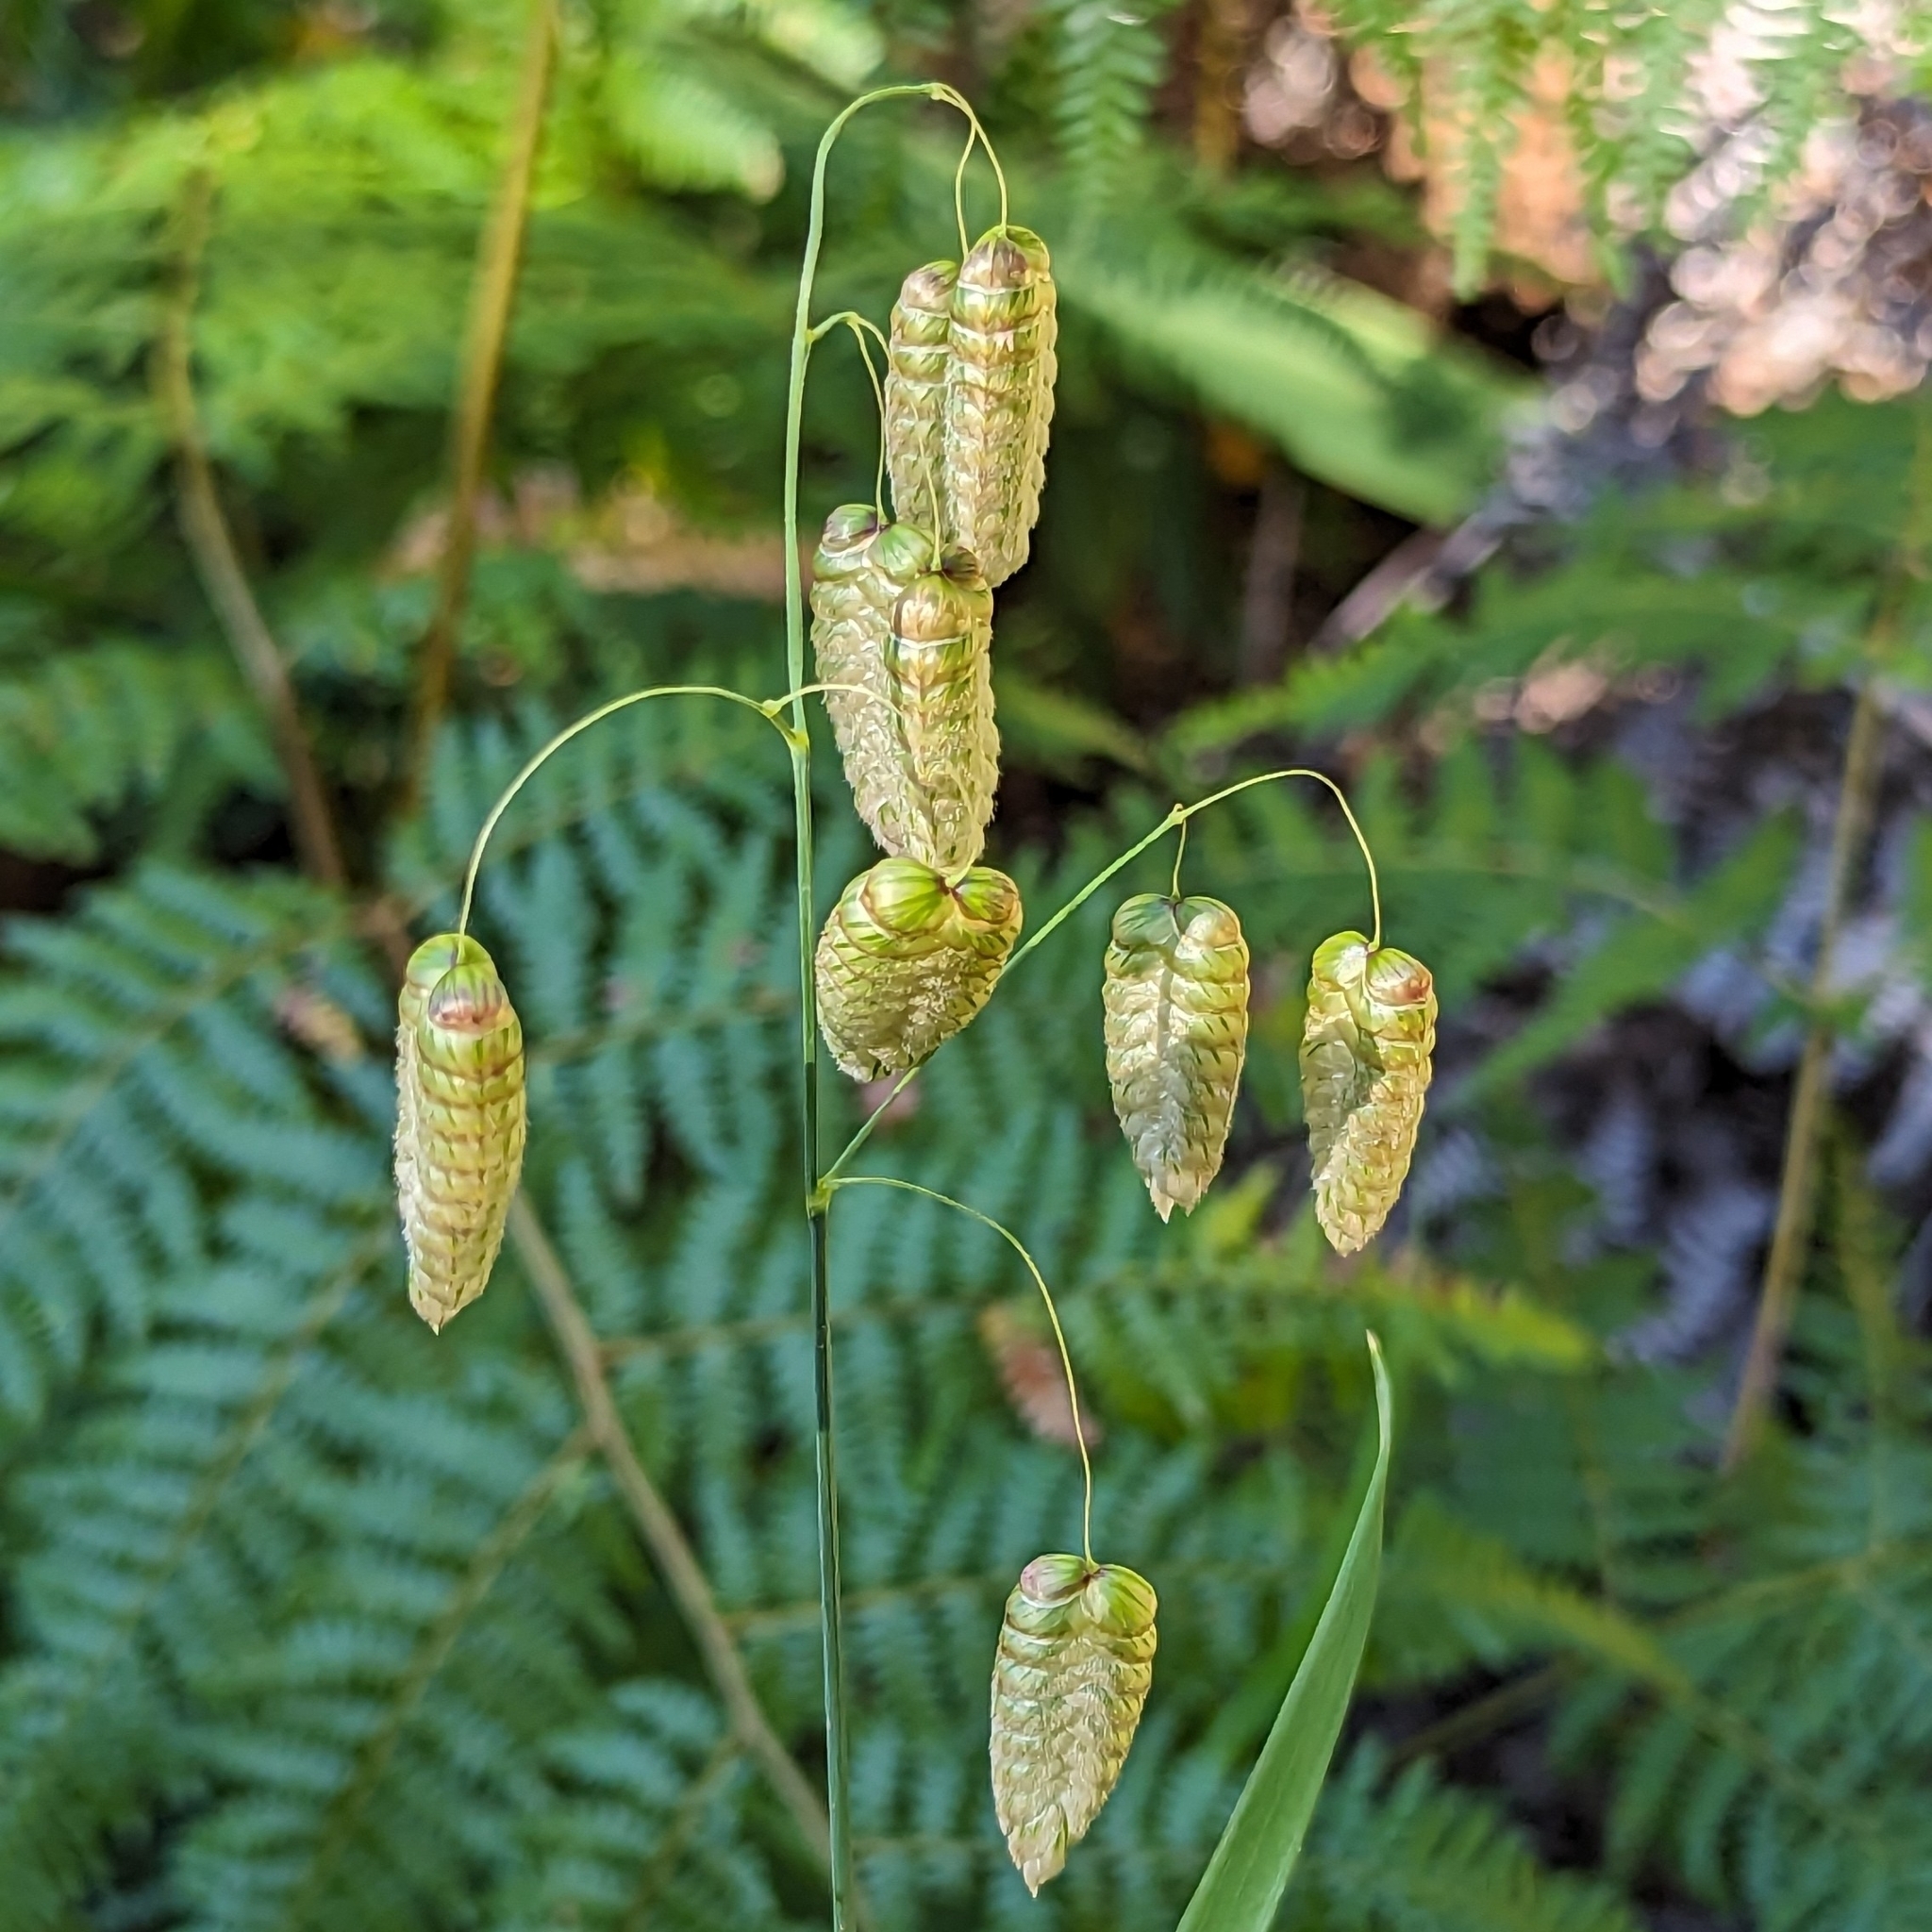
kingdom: Plantae
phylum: Tracheophyta
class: Liliopsida
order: Poales
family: Poaceae
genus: Briza
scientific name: Briza maxima
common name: Big quakinggrass
